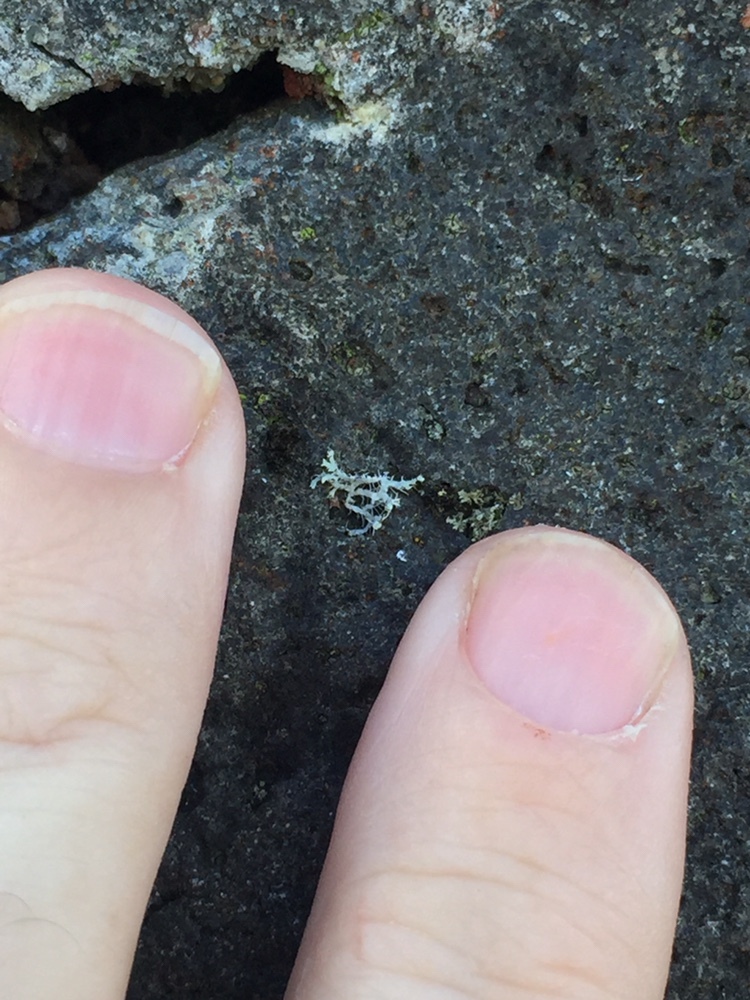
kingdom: Fungi
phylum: Ascomycota
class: Lecanoromycetes
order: Caliciales
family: Physciaceae
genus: Physcia
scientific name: Physcia adscendens
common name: Hooded rosette lichen
